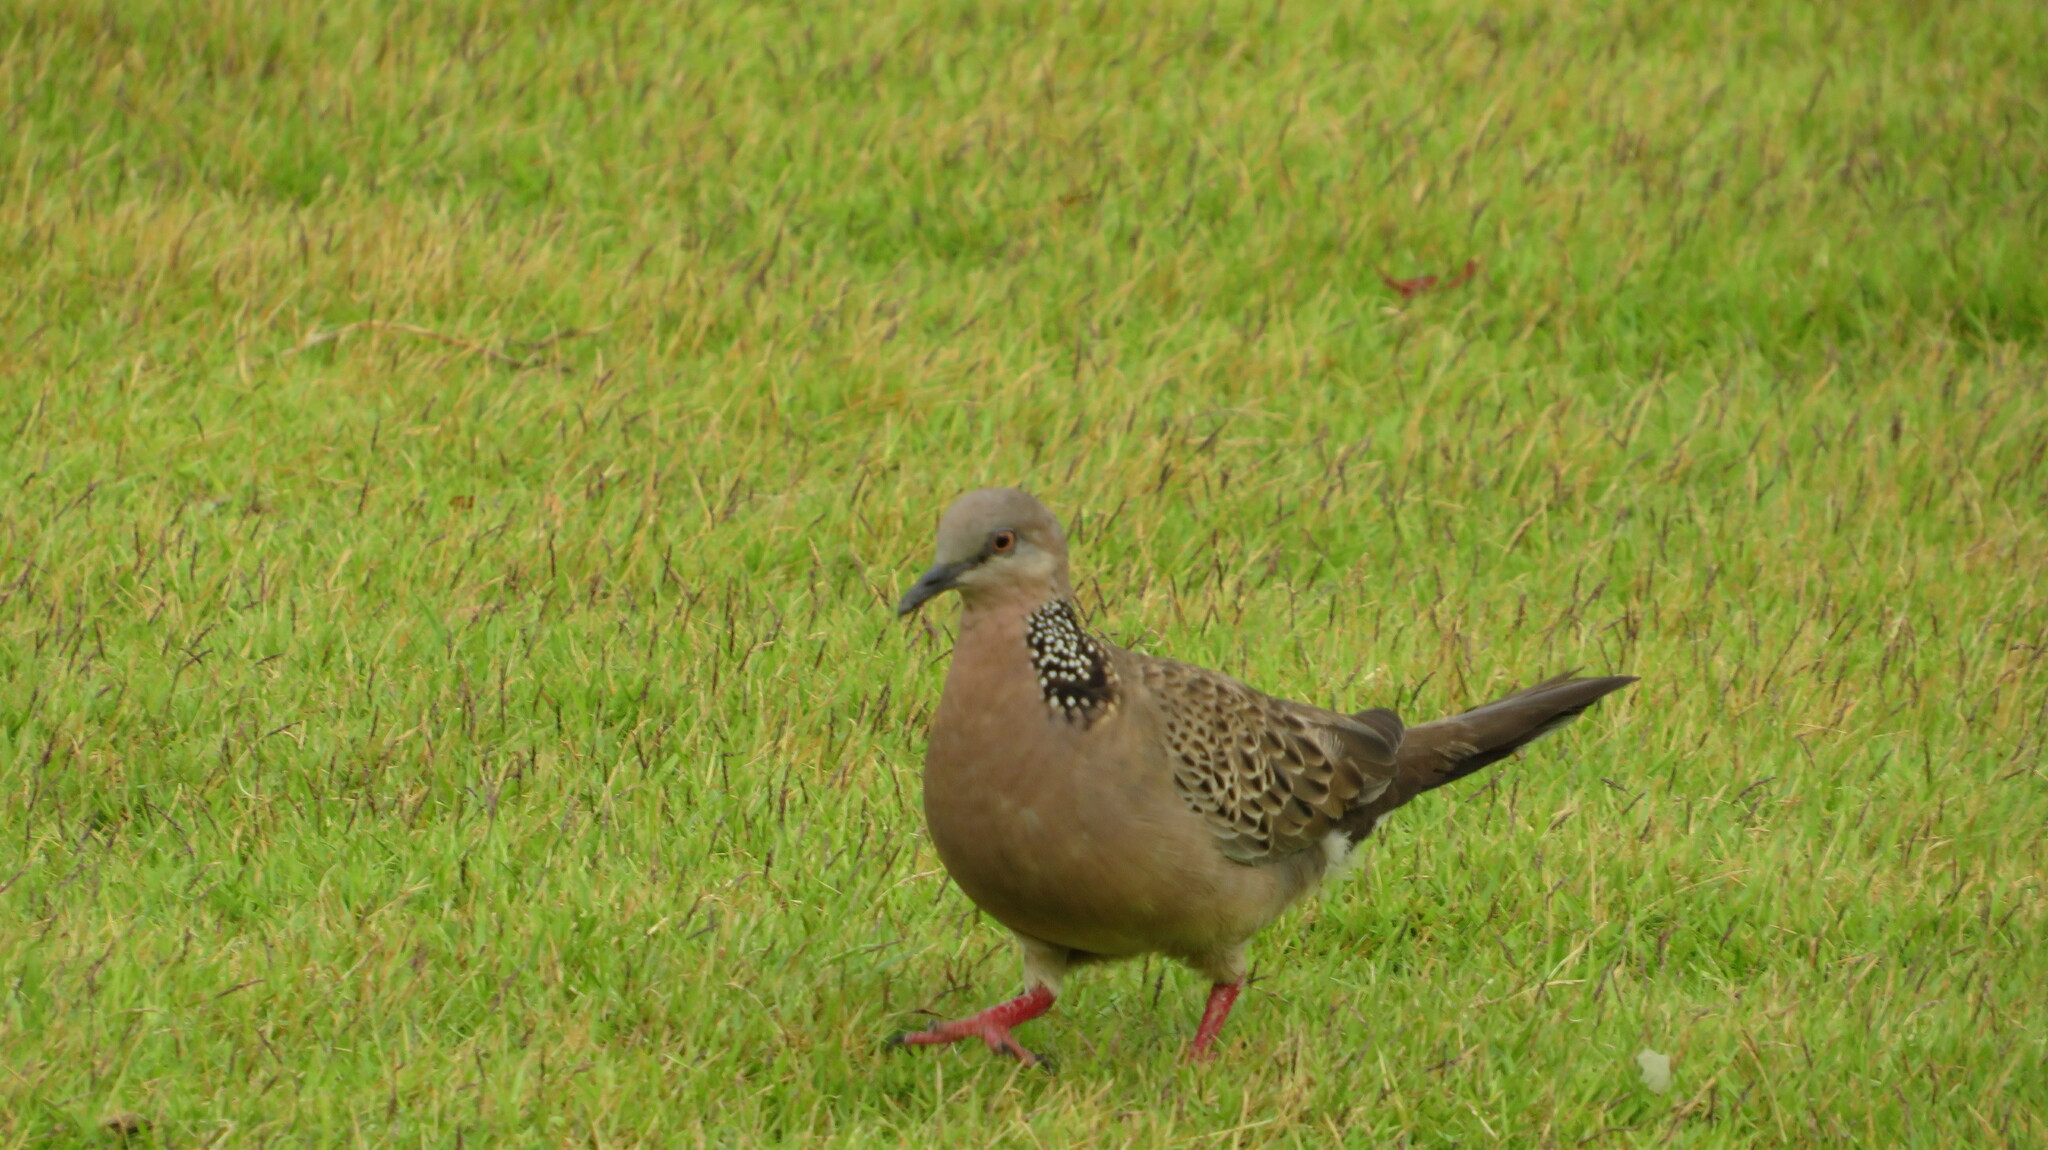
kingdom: Animalia
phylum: Chordata
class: Aves
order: Columbiformes
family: Columbidae
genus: Spilopelia
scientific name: Spilopelia chinensis
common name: Spotted dove
